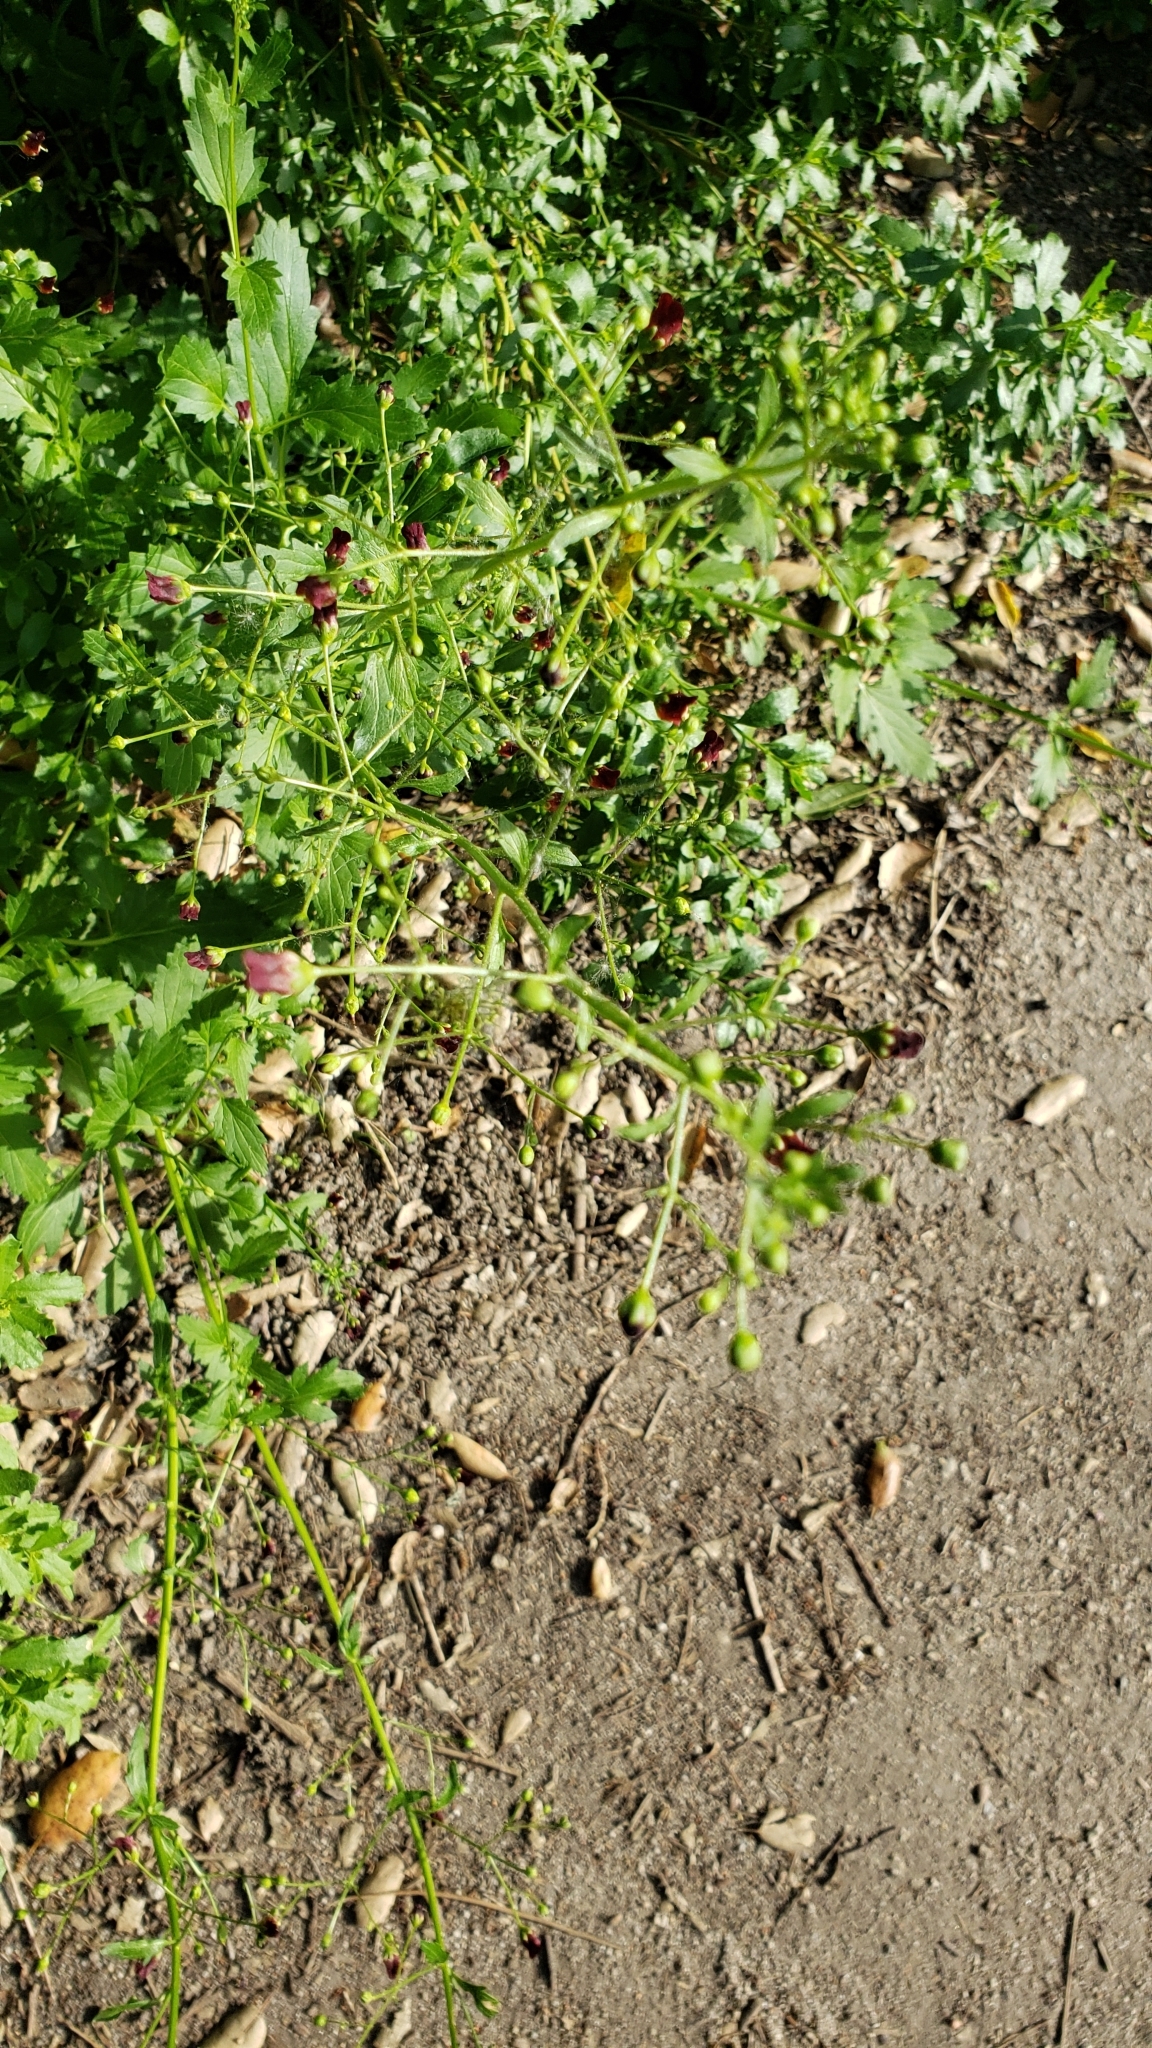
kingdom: Plantae
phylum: Tracheophyta
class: Magnoliopsida
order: Lamiales
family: Scrophulariaceae
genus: Scrophularia
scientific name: Scrophularia californica
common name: California figwort
